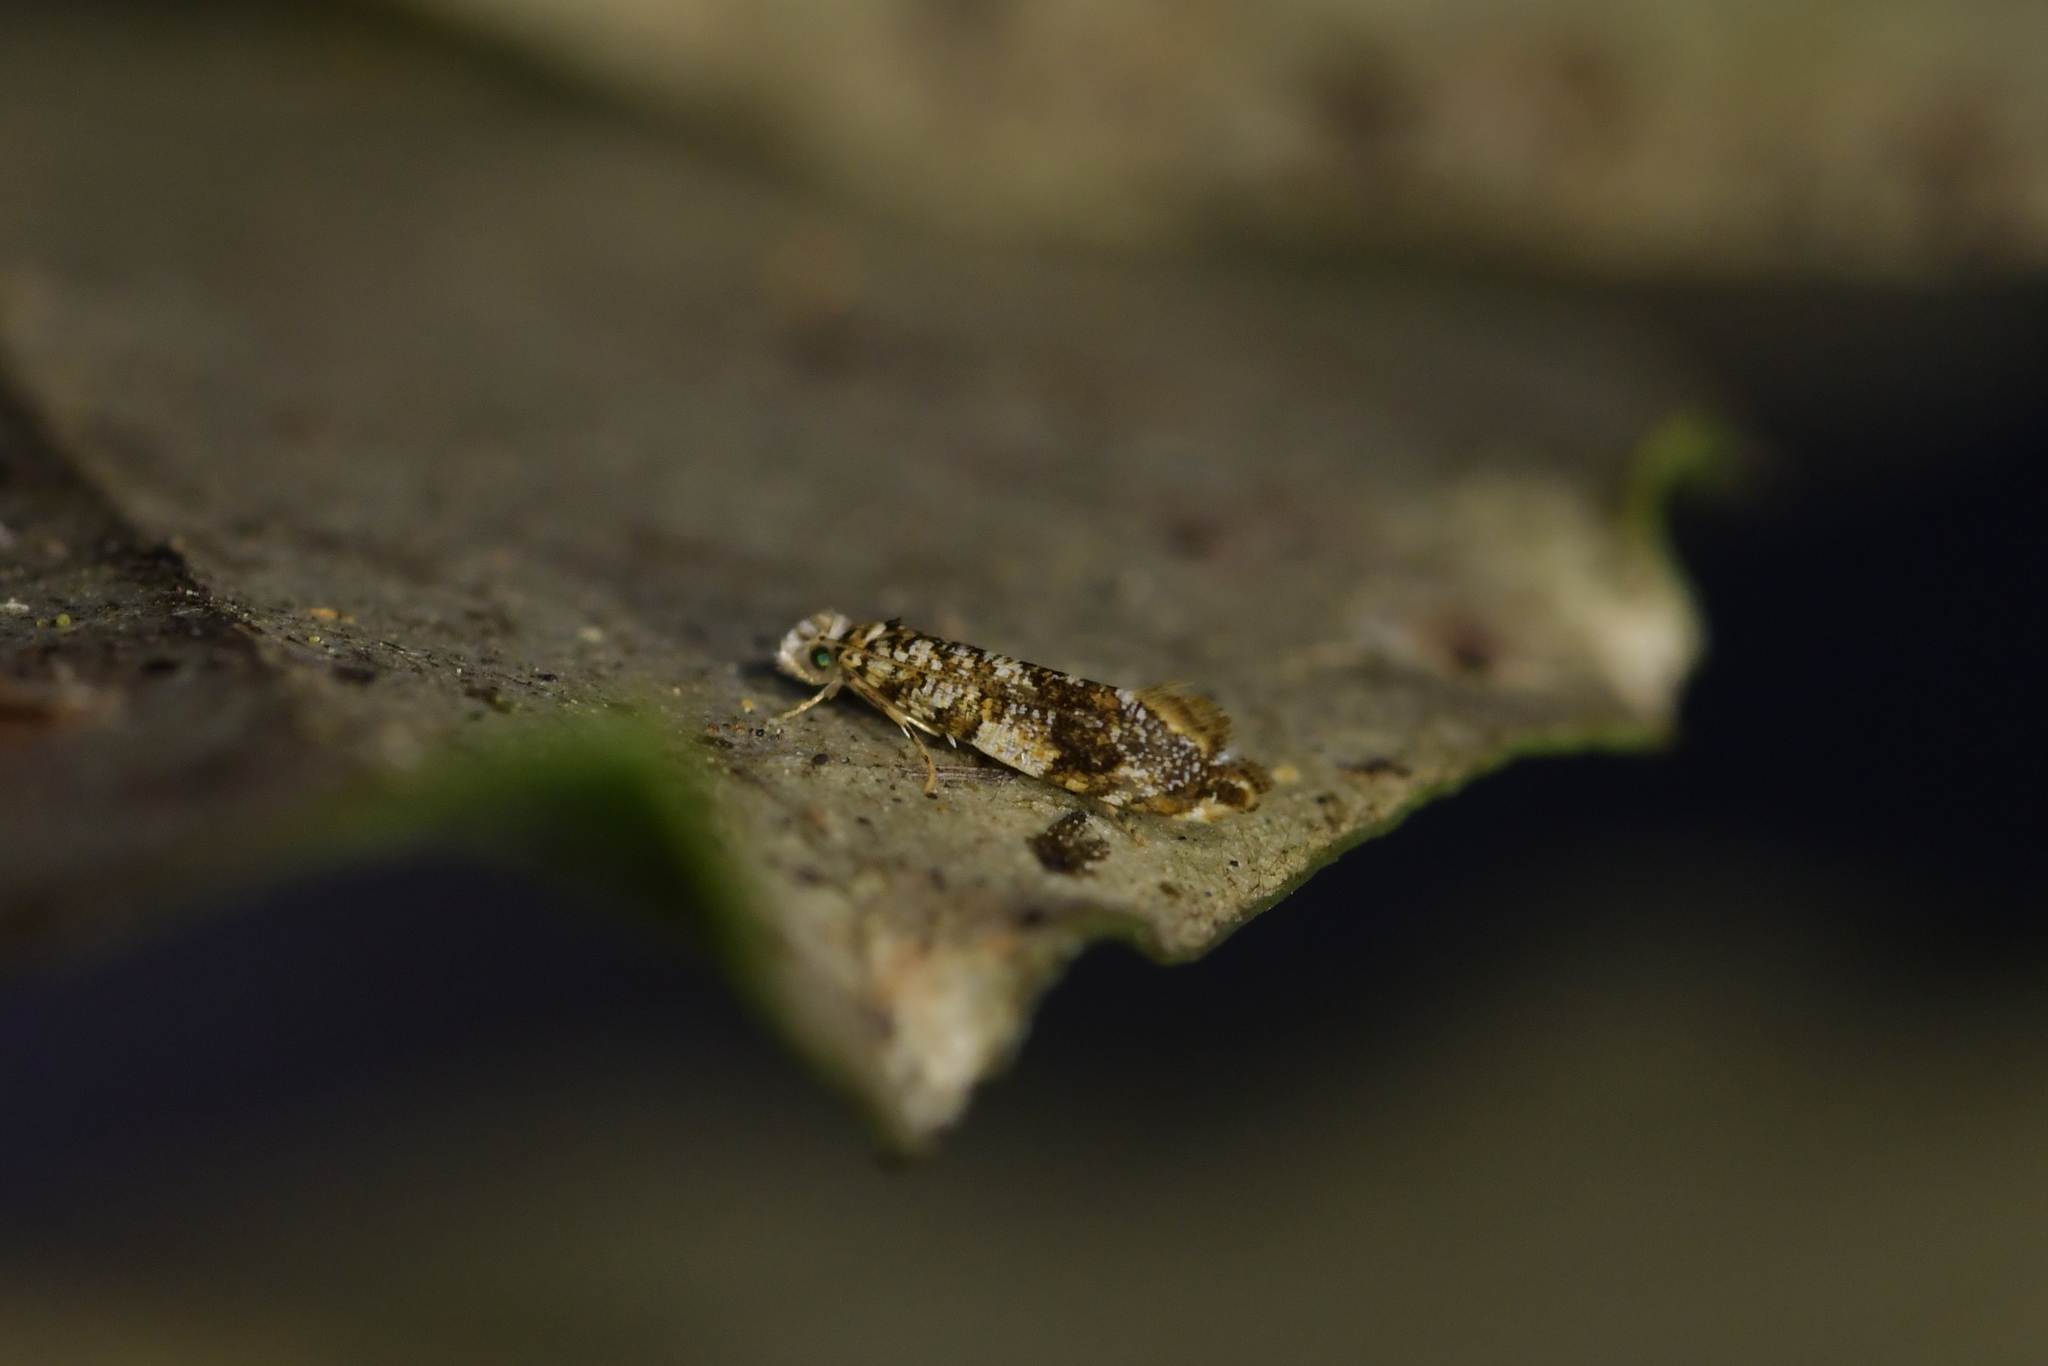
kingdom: Animalia
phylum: Arthropoda
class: Insecta
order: Lepidoptera
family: Tineidae
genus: Eschatotypa
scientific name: Eschatotypa derogatella
